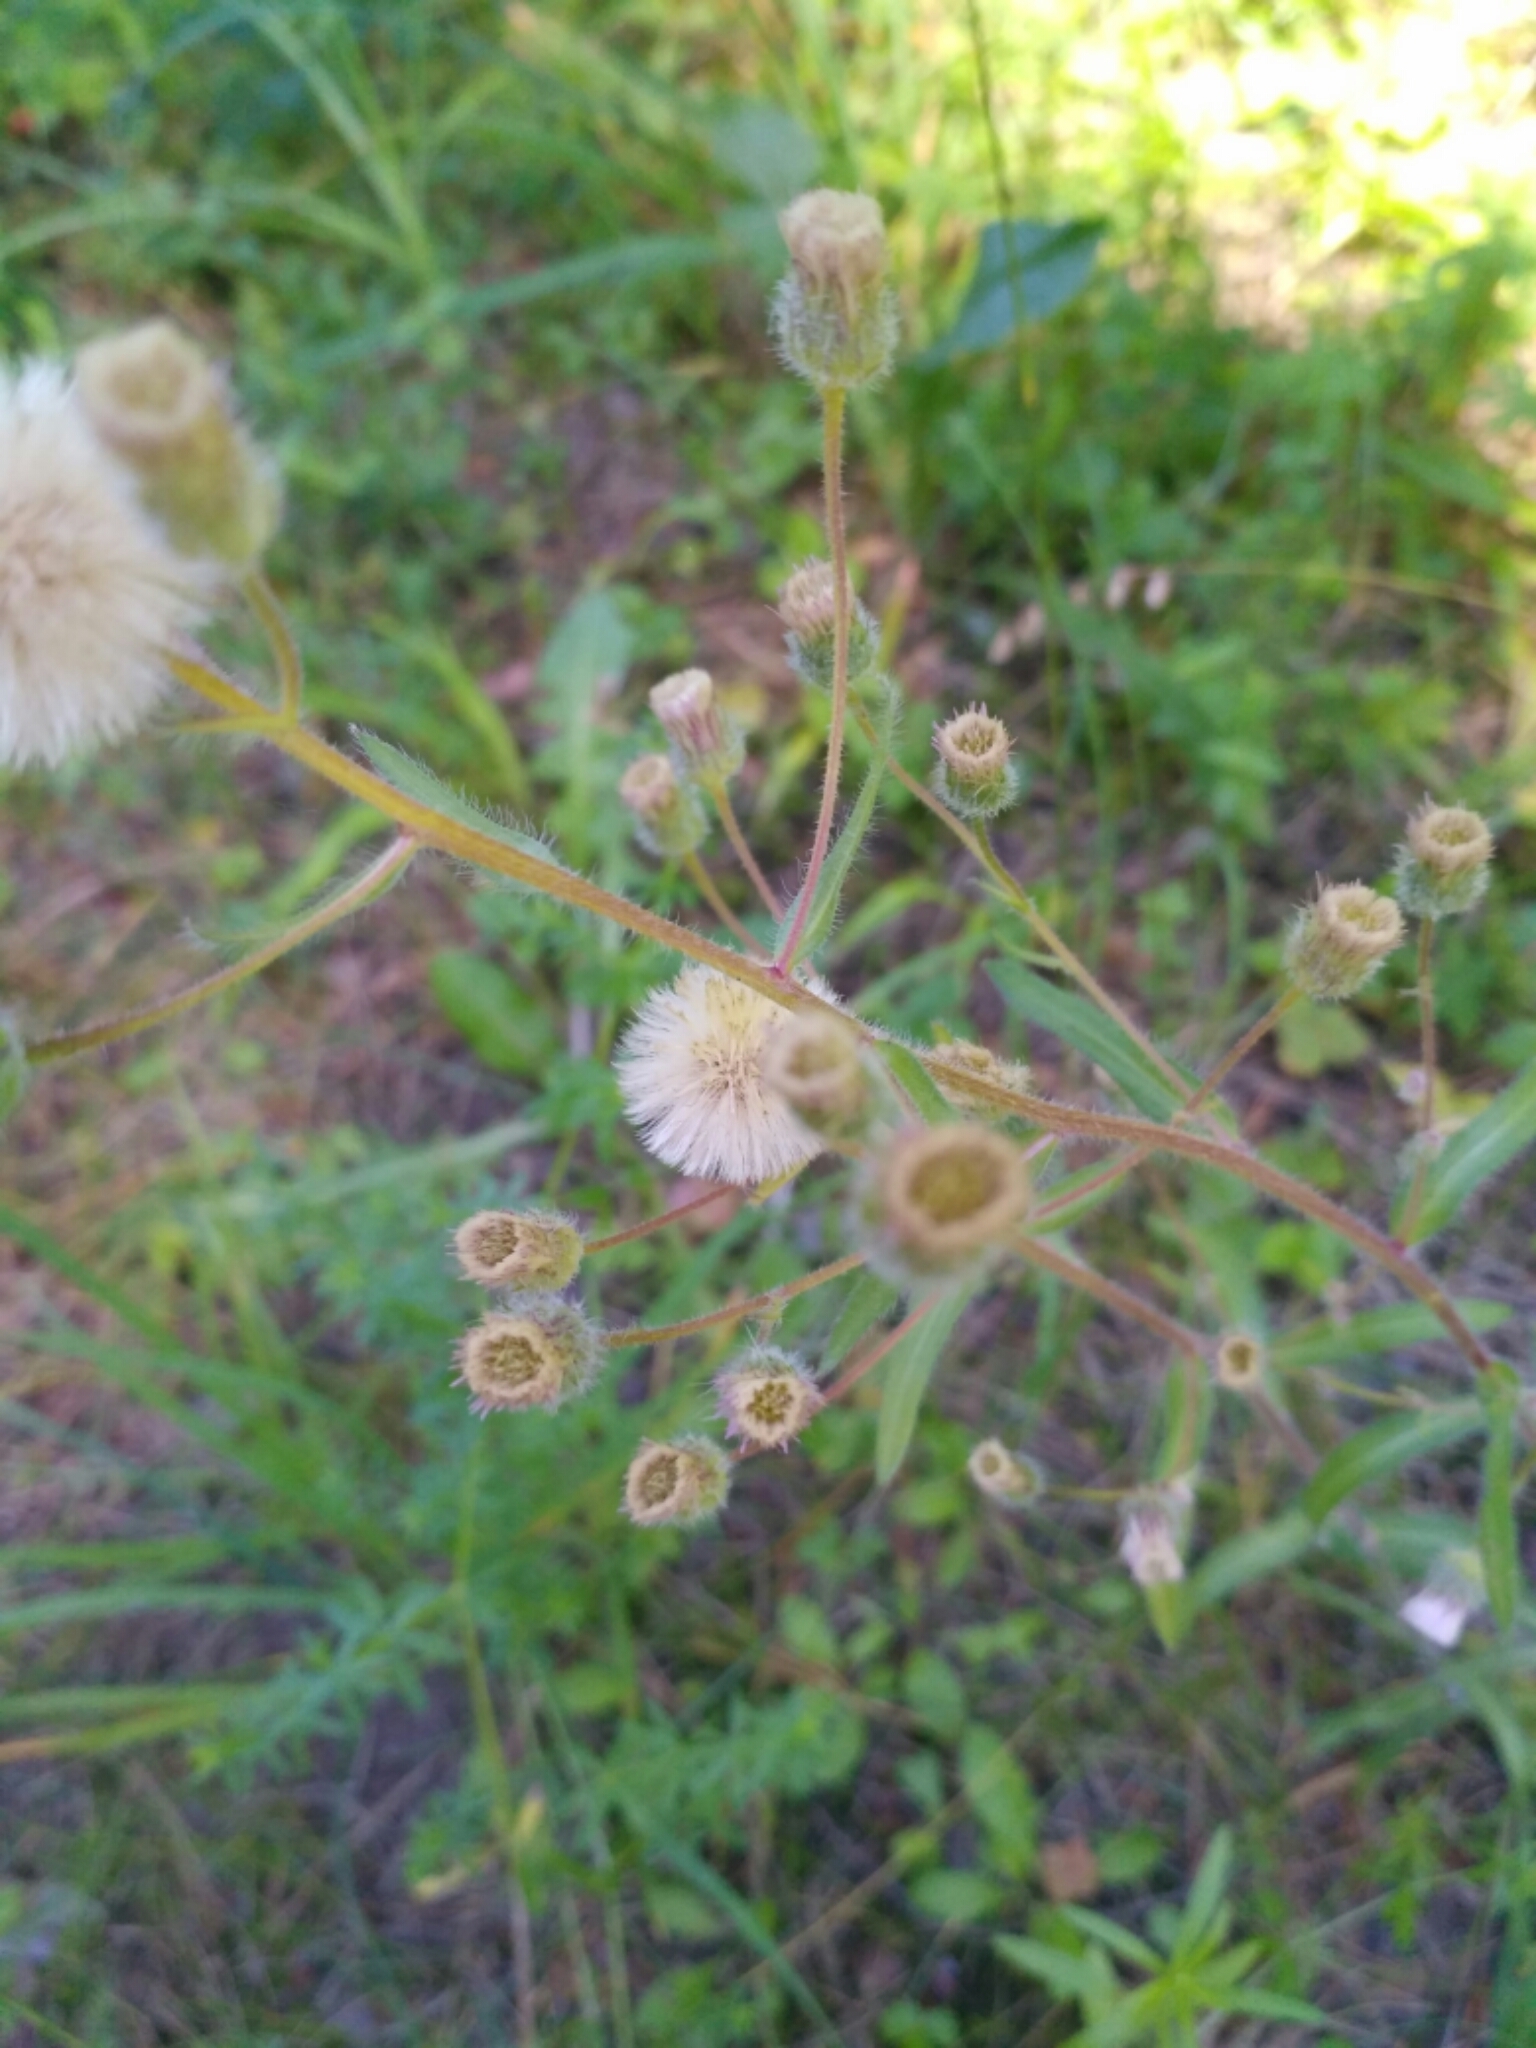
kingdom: Plantae
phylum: Tracheophyta
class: Magnoliopsida
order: Asterales
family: Asteraceae
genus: Erigeron
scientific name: Erigeron acris
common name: Blue fleabane
